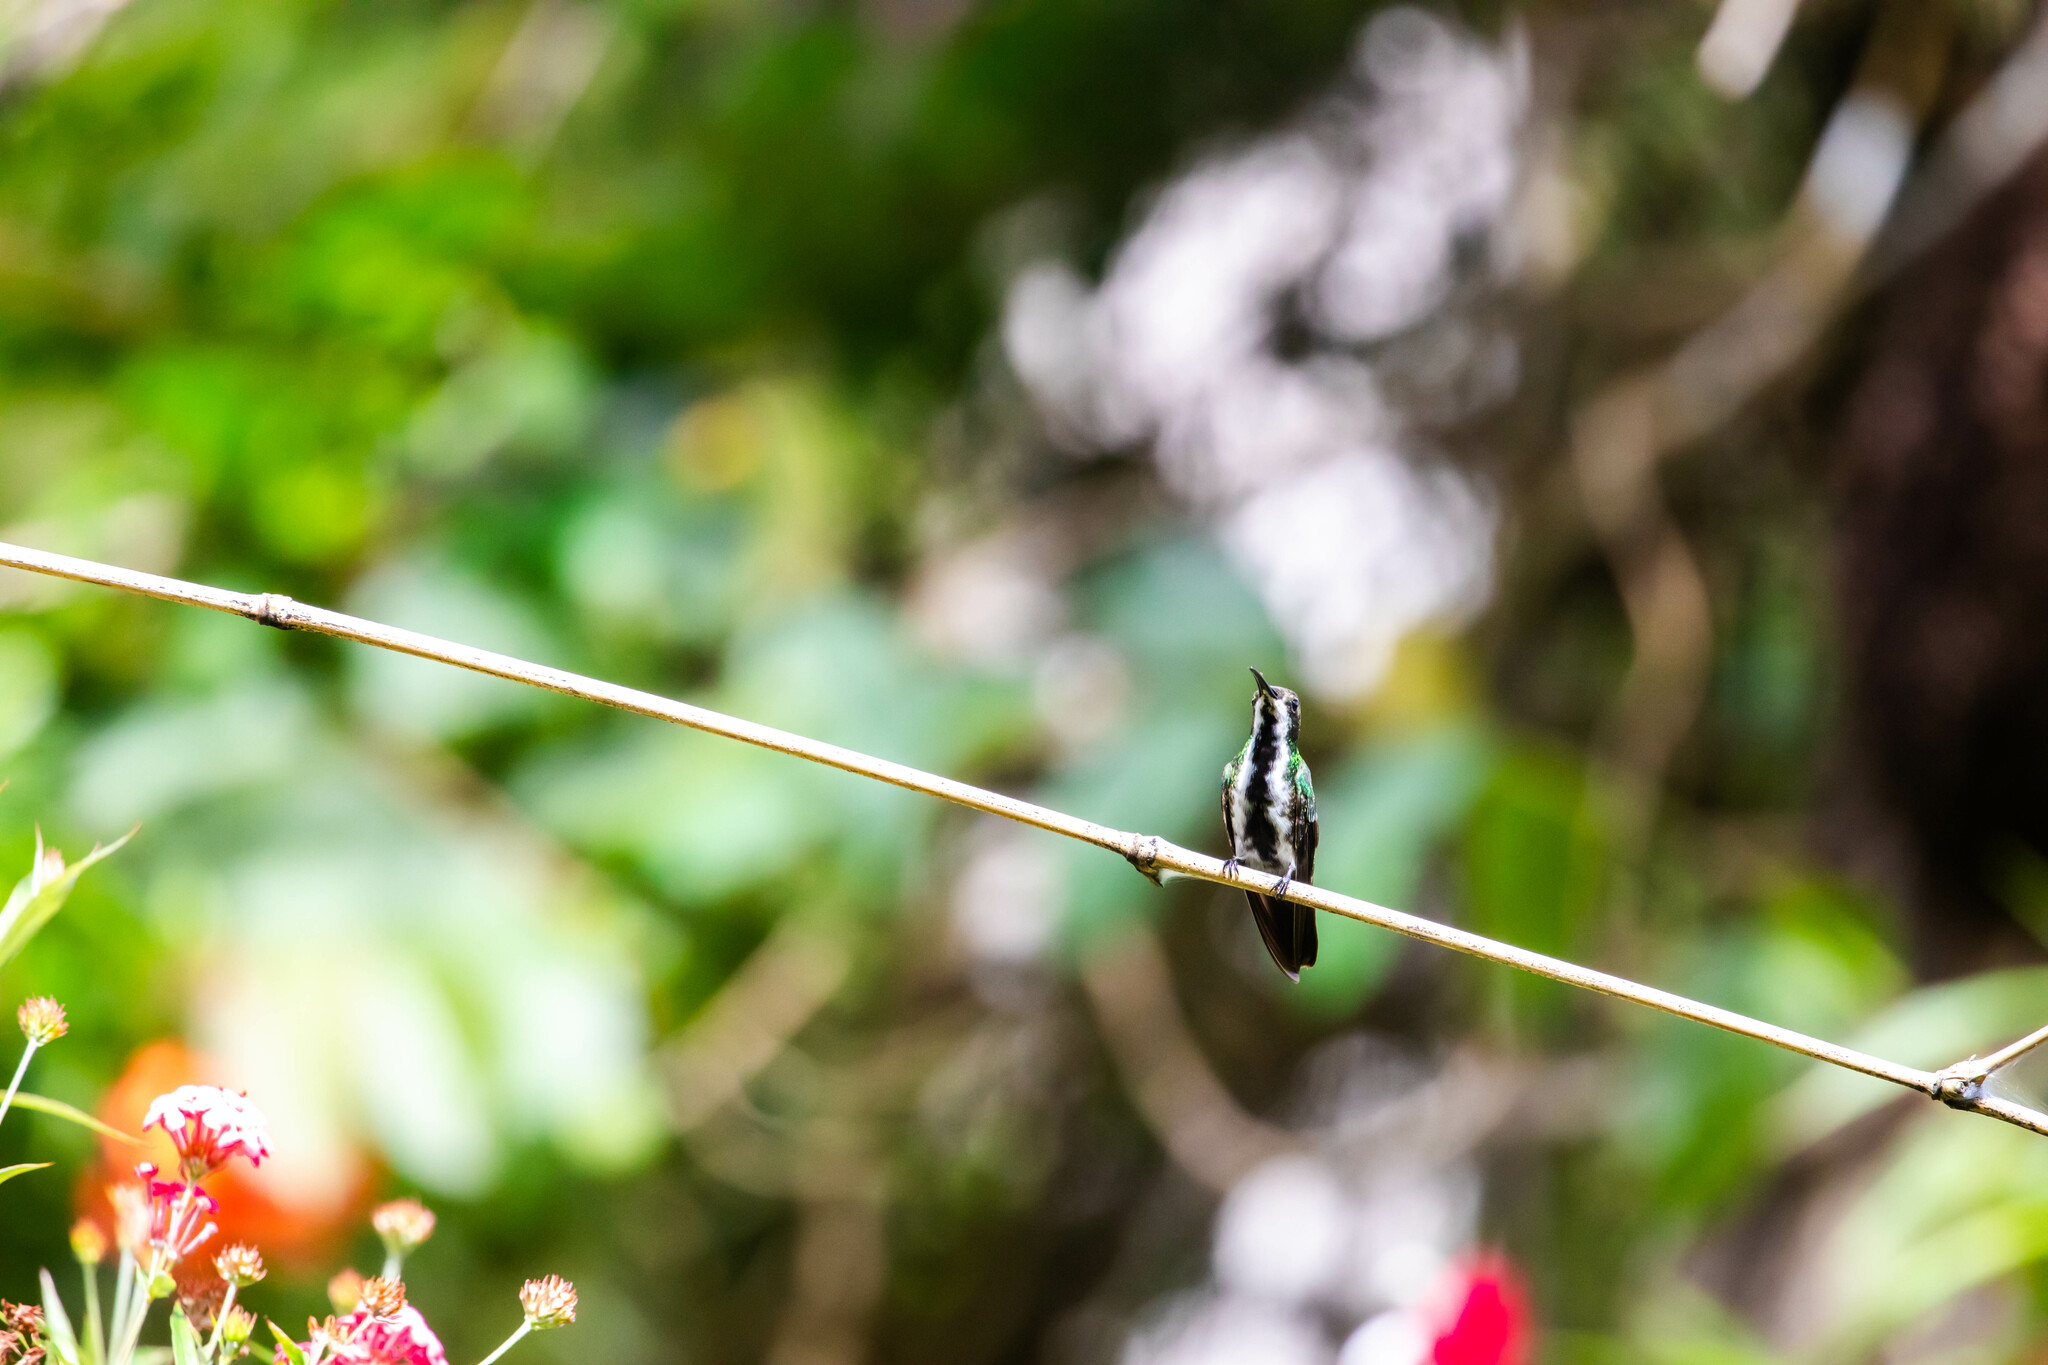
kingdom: Animalia
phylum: Chordata
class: Aves
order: Apodiformes
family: Trochilidae
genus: Anthracothorax
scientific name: Anthracothorax nigricollis
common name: Black-throated mango
